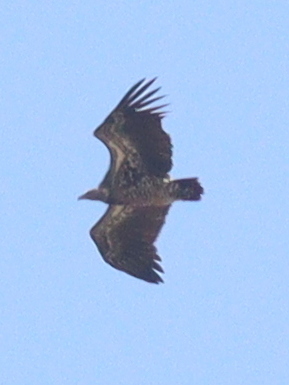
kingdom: Animalia
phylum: Chordata
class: Aves
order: Accipitriformes
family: Accipitridae
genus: Gyps
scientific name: Gyps rueppellii
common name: Rüppell's vulture
